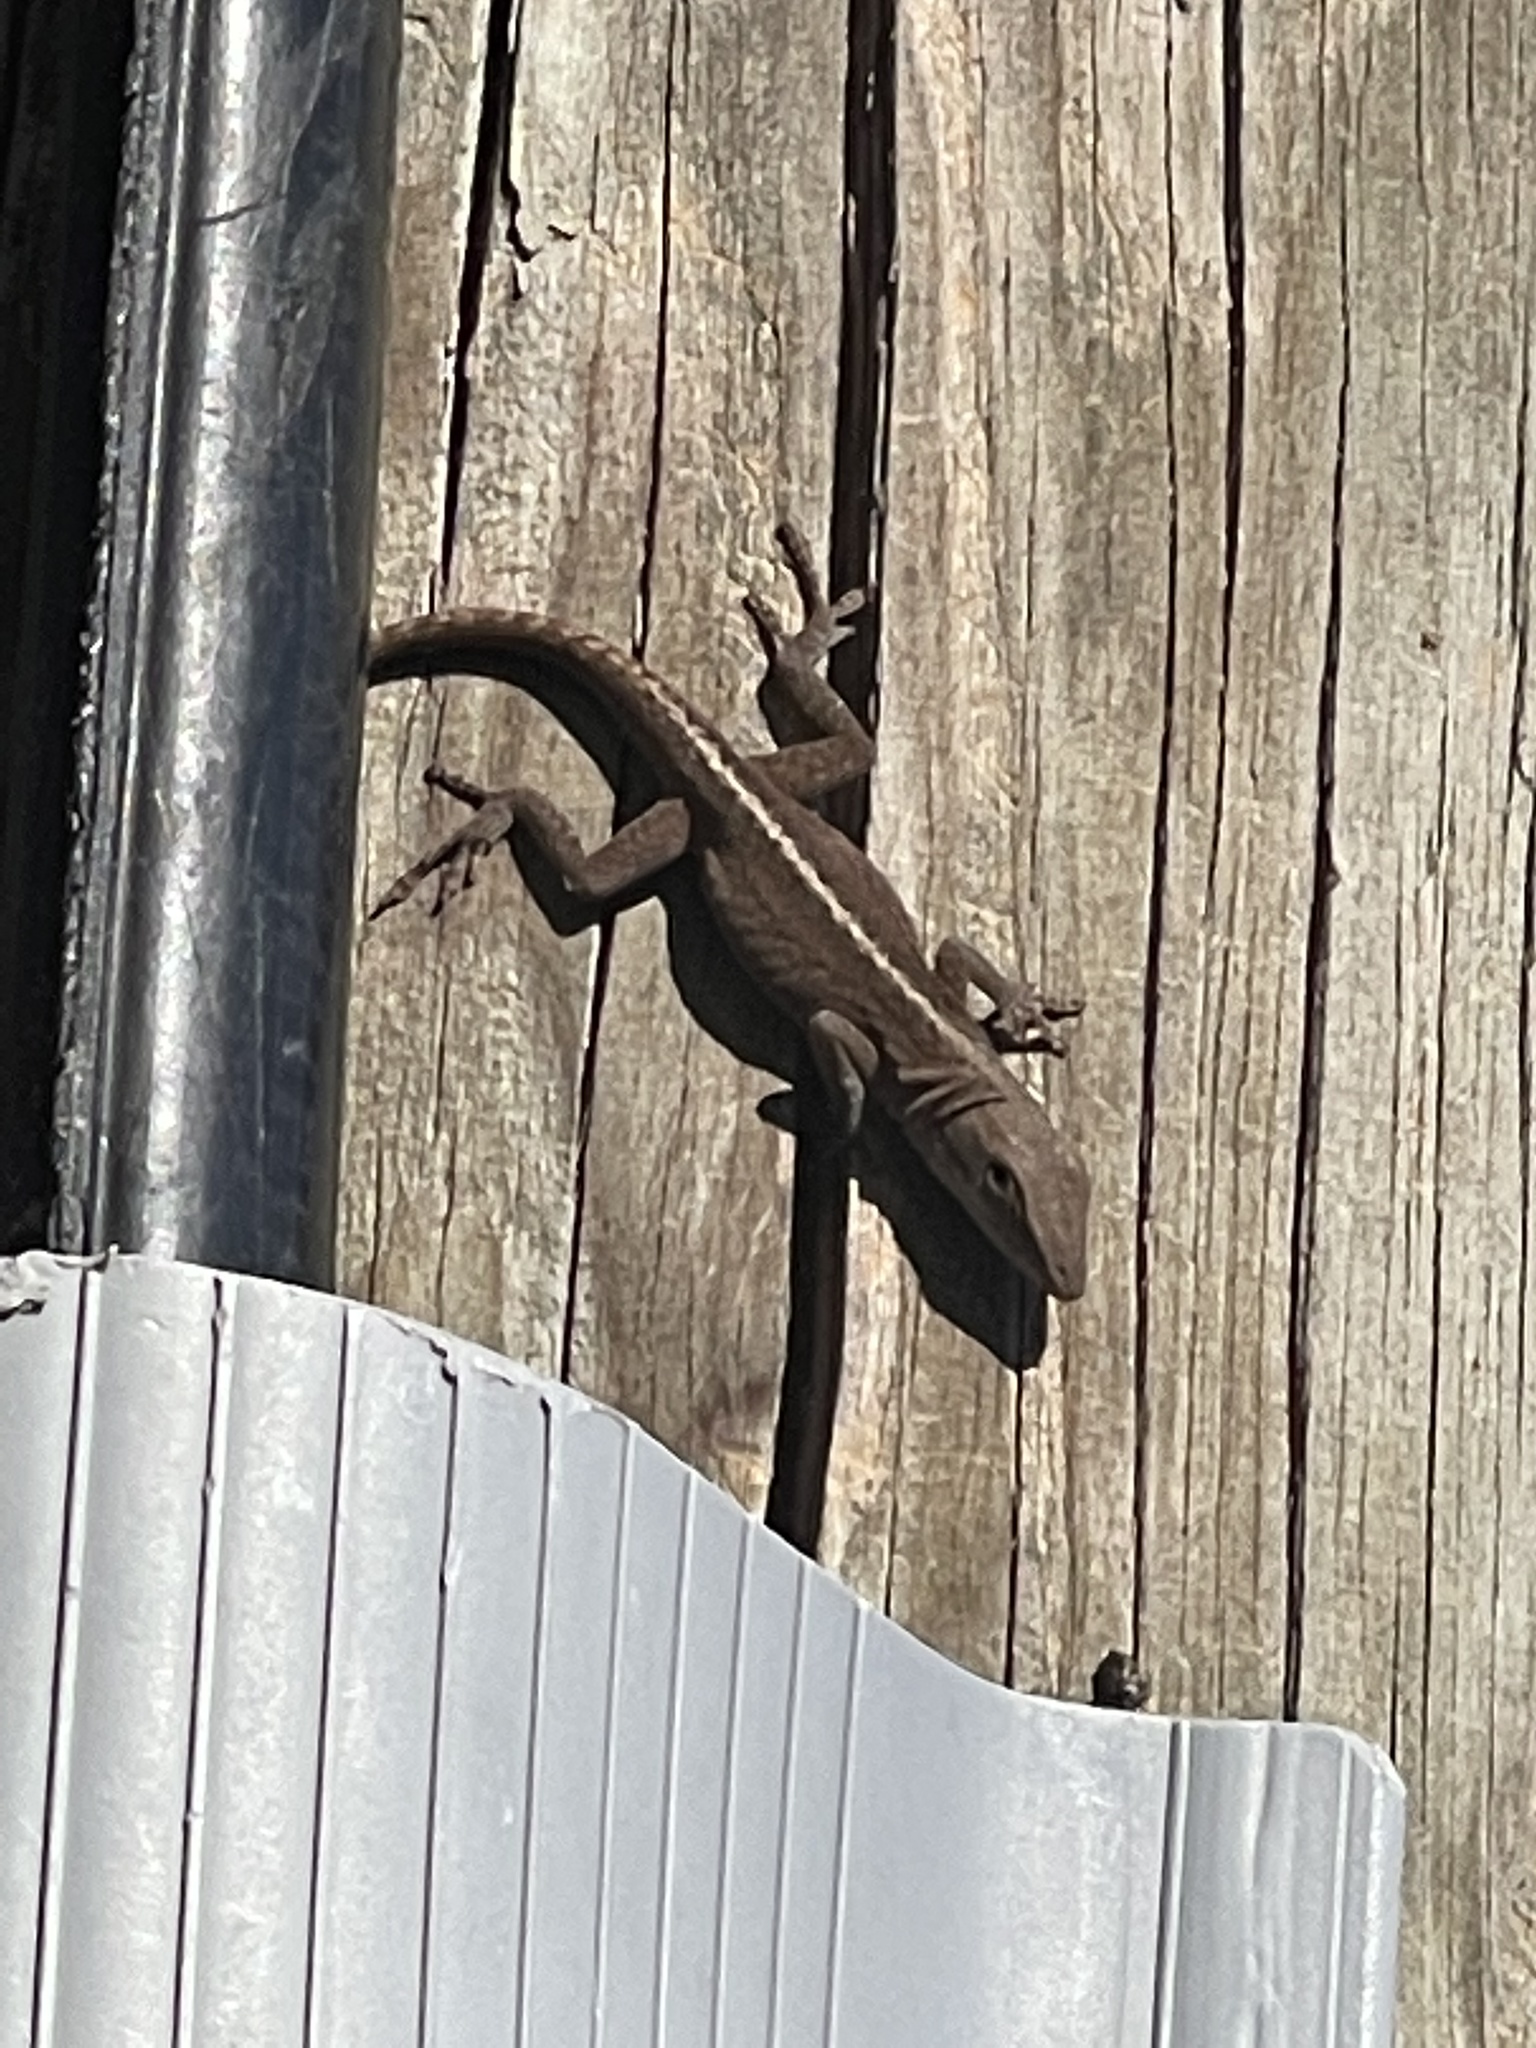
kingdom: Animalia
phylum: Chordata
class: Squamata
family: Dactyloidae
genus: Anolis
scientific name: Anolis carolinensis
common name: Green anole
